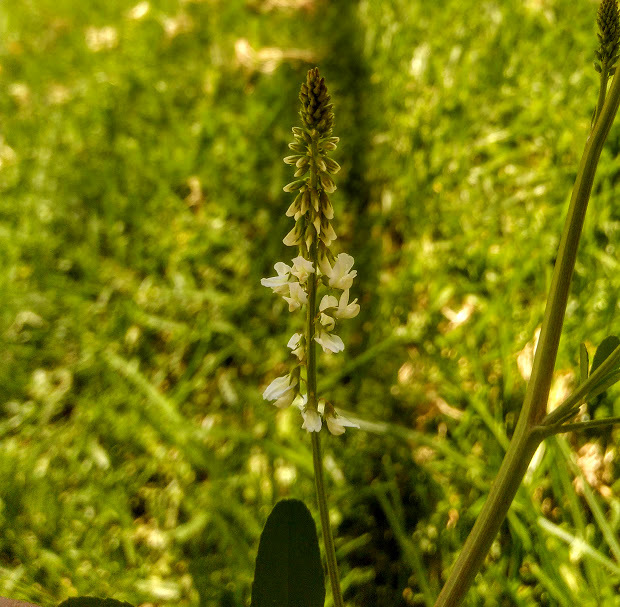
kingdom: Plantae
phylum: Tracheophyta
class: Magnoliopsida
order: Fabales
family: Fabaceae
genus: Melilotus
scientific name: Melilotus albus
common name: White melilot
